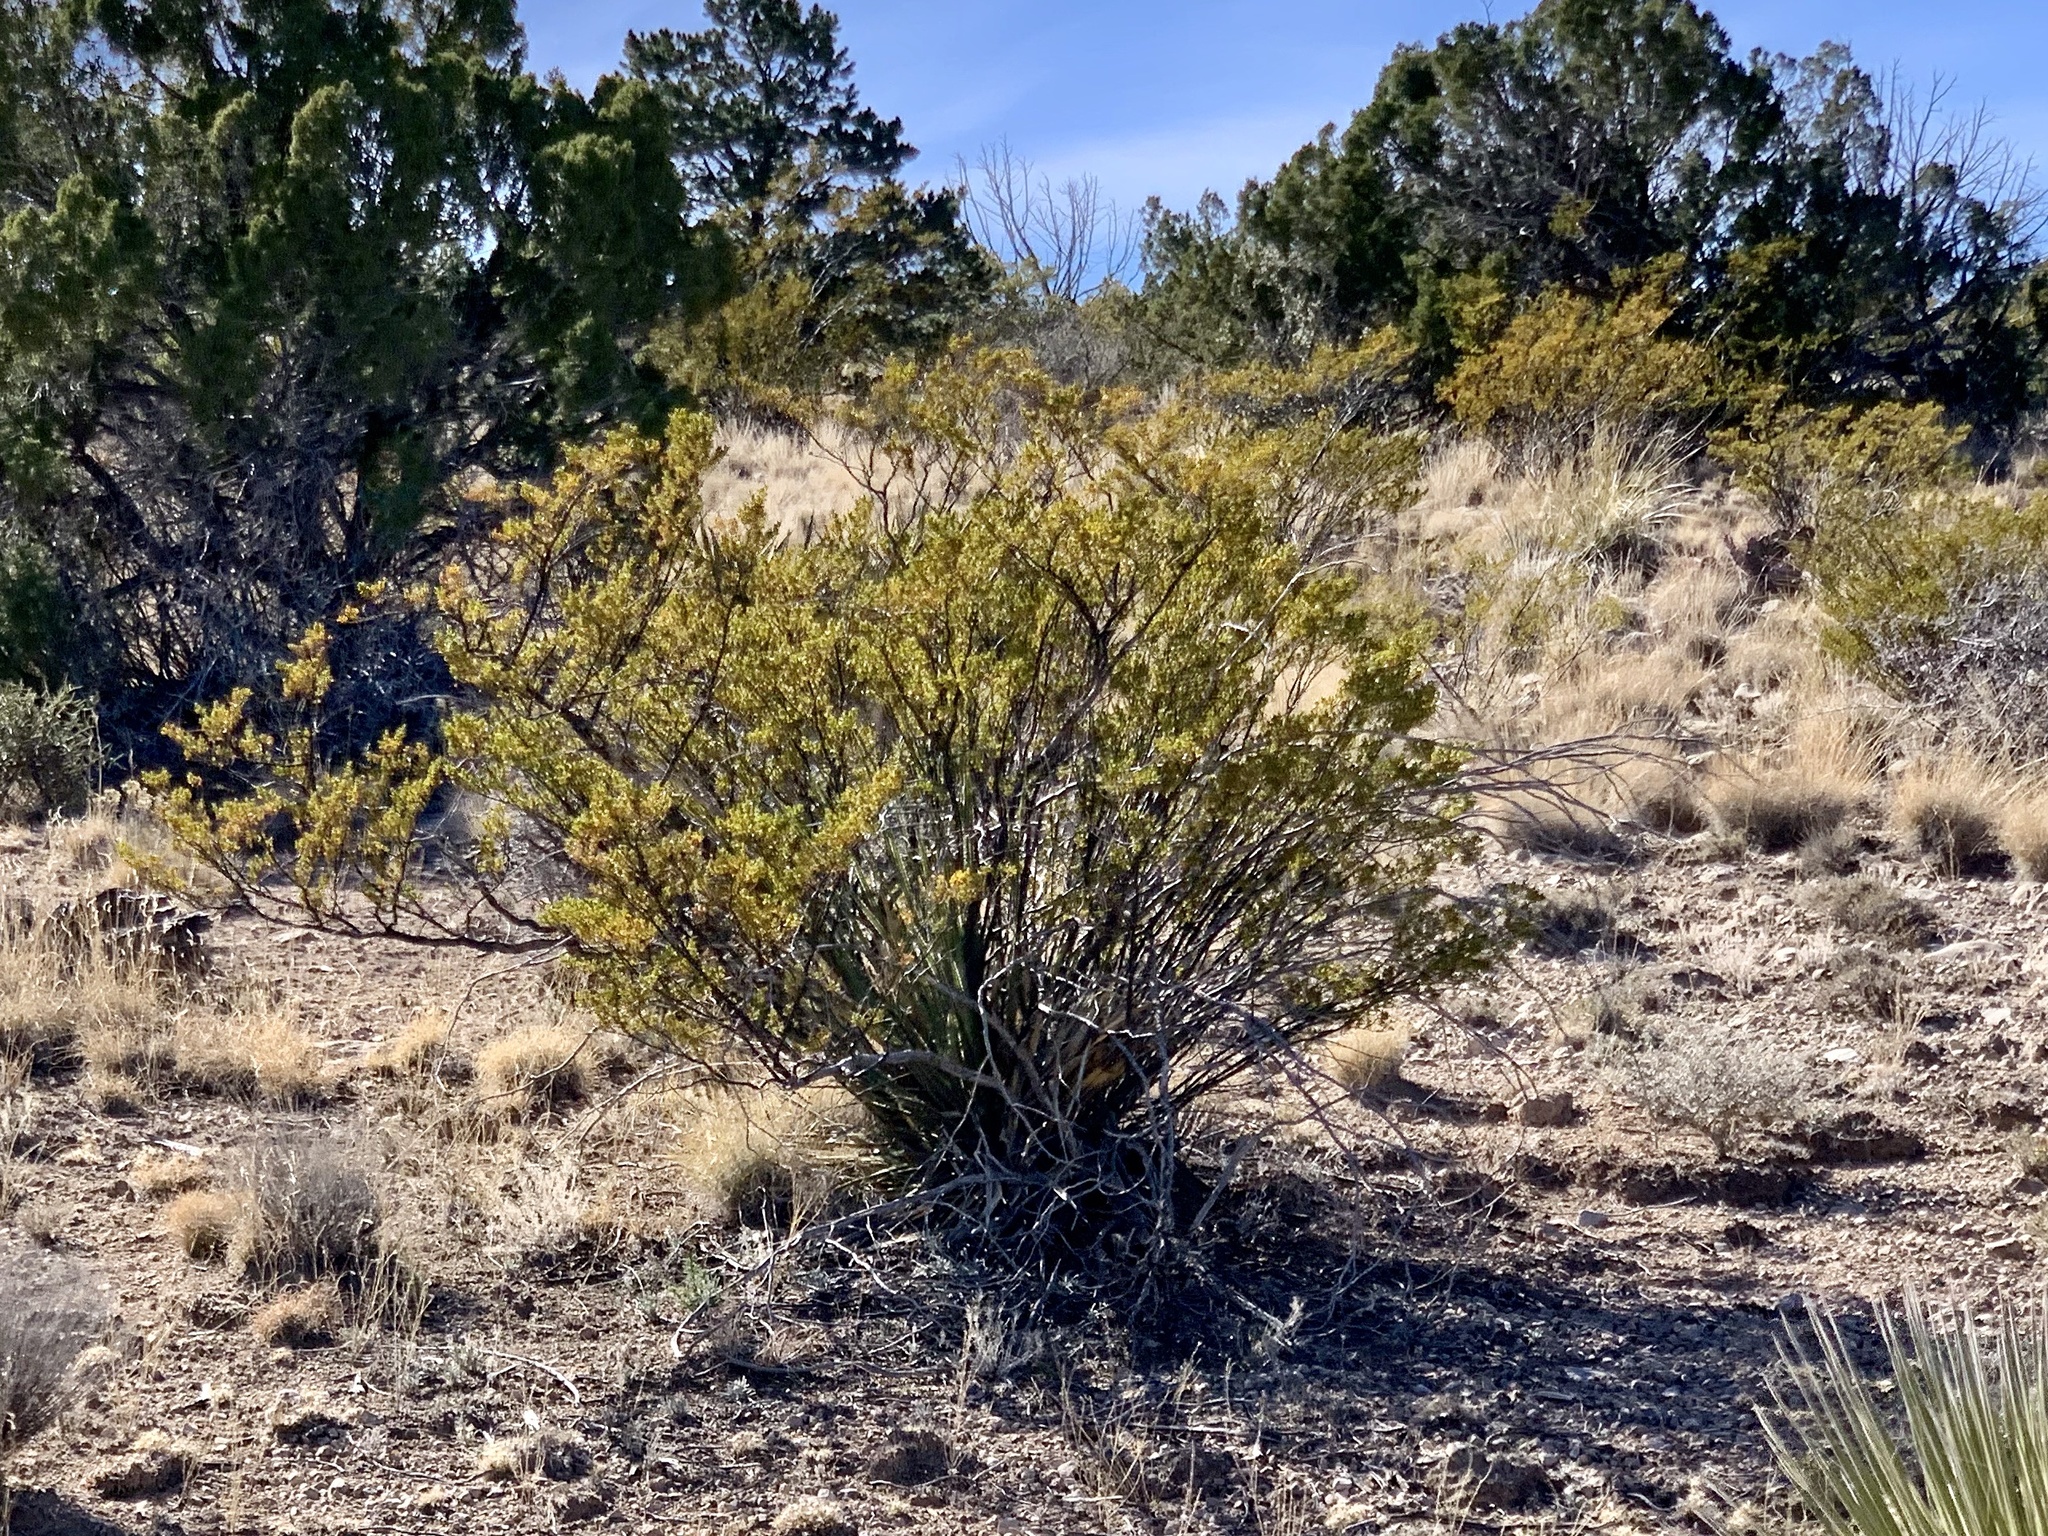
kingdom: Plantae
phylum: Tracheophyta
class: Magnoliopsida
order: Zygophyllales
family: Zygophyllaceae
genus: Larrea
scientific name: Larrea tridentata
